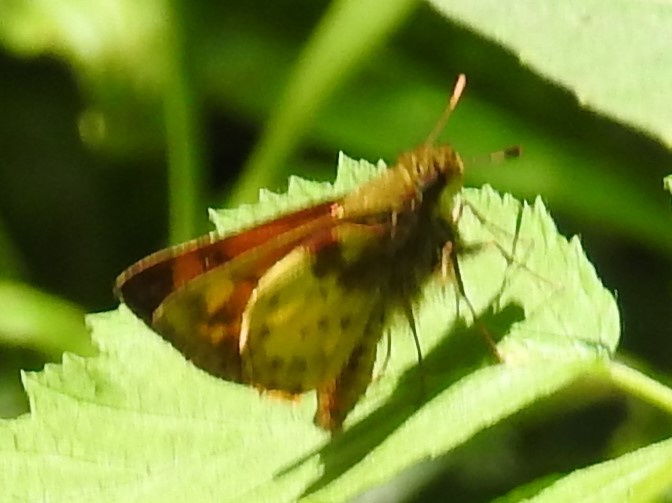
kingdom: Animalia
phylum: Arthropoda
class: Insecta
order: Lepidoptera
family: Hesperiidae
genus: Lon
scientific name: Lon zabulon
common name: Zabulon skipper
